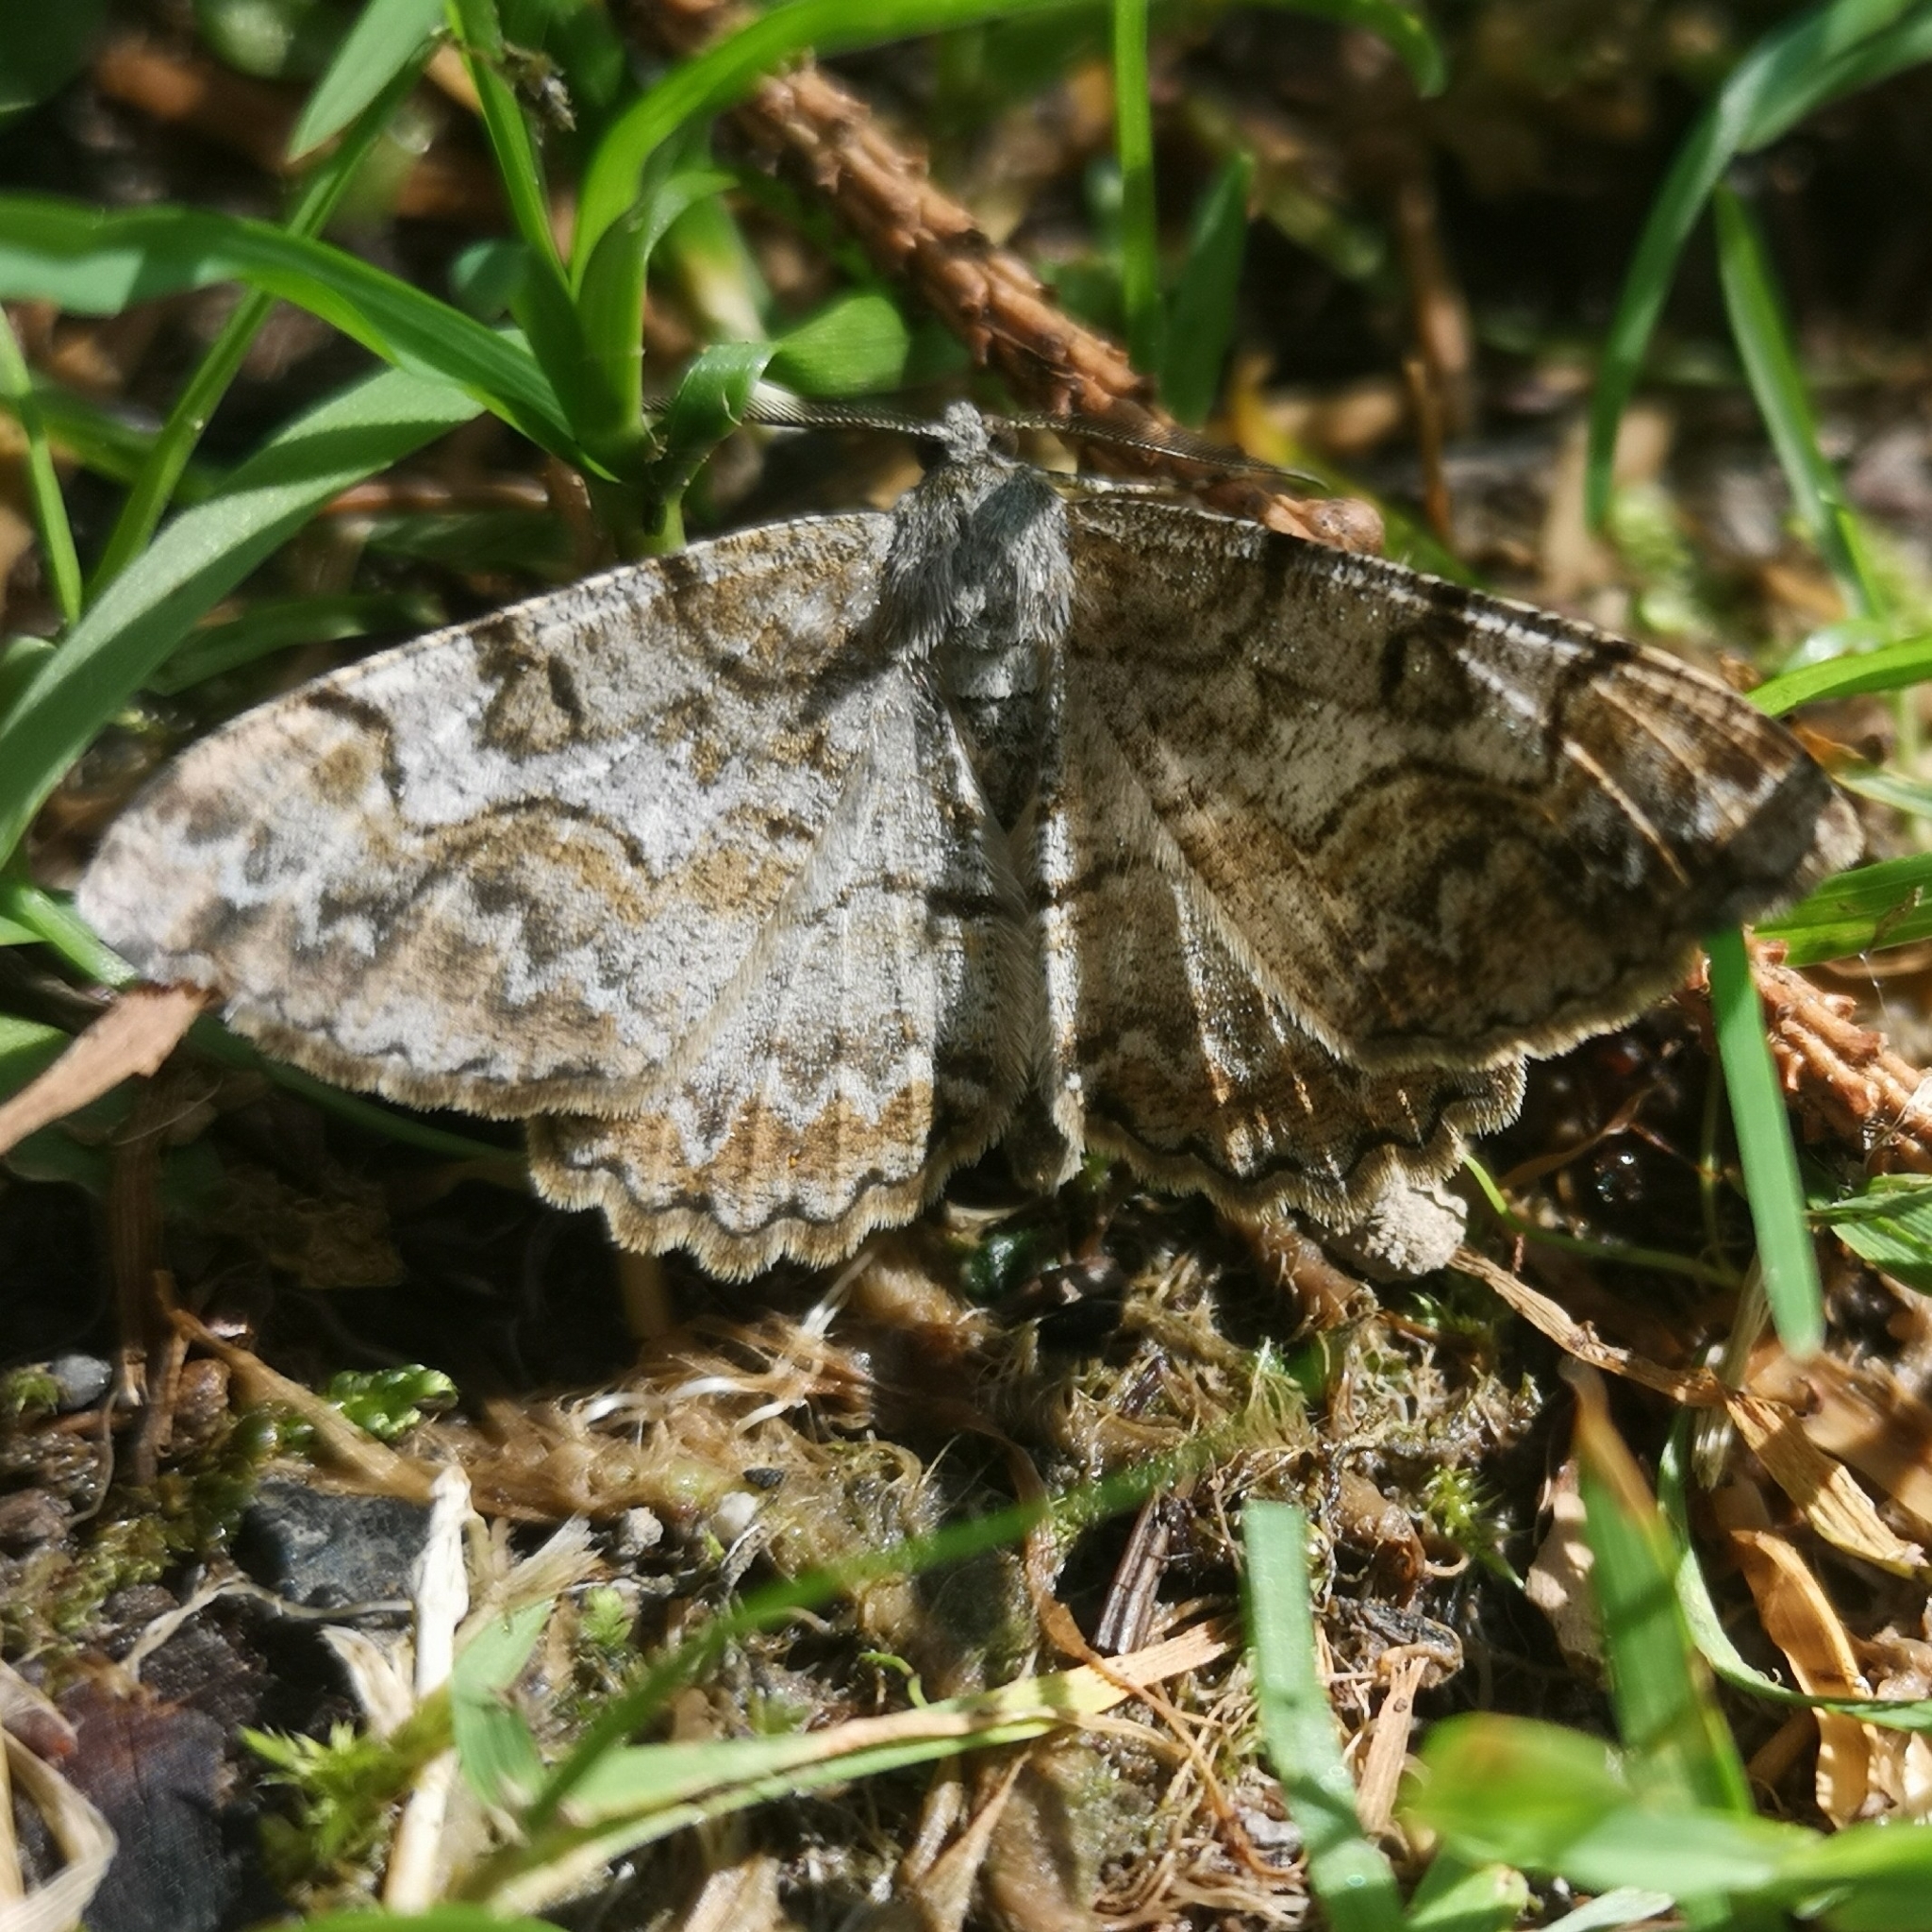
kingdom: Animalia
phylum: Arthropoda
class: Insecta
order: Lepidoptera
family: Geometridae
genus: Alcis
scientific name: Alcis repandata
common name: Mottled beauty
